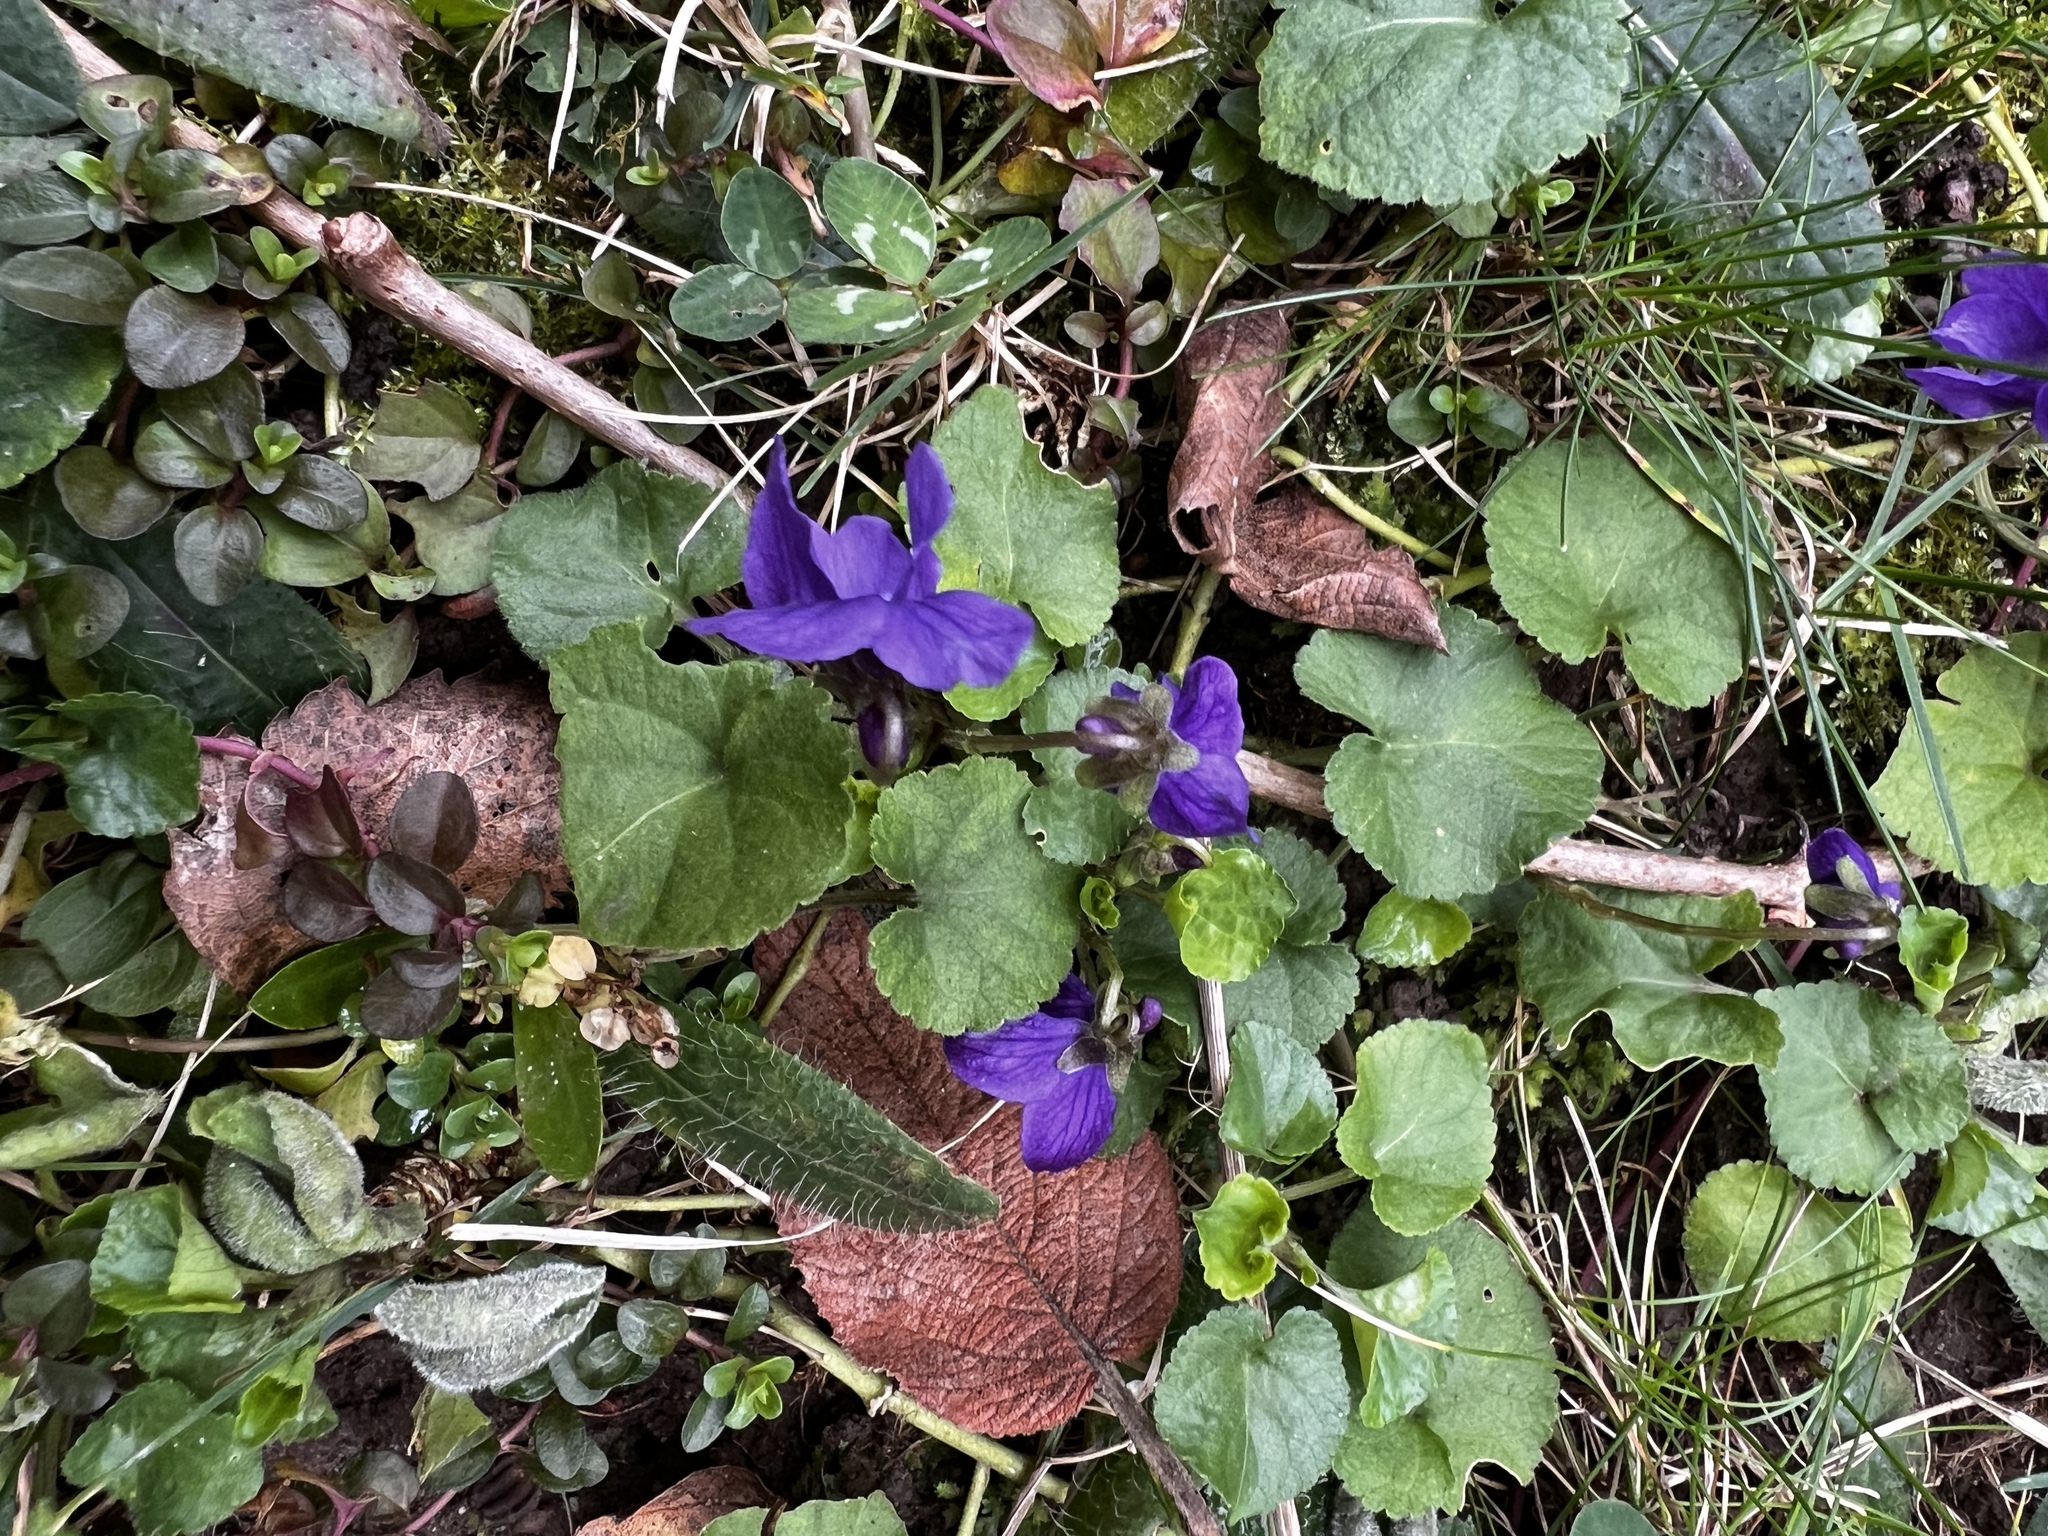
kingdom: Plantae
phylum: Tracheophyta
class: Magnoliopsida
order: Malpighiales
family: Violaceae
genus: Viola
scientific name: Viola odorata
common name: Sweet violet
